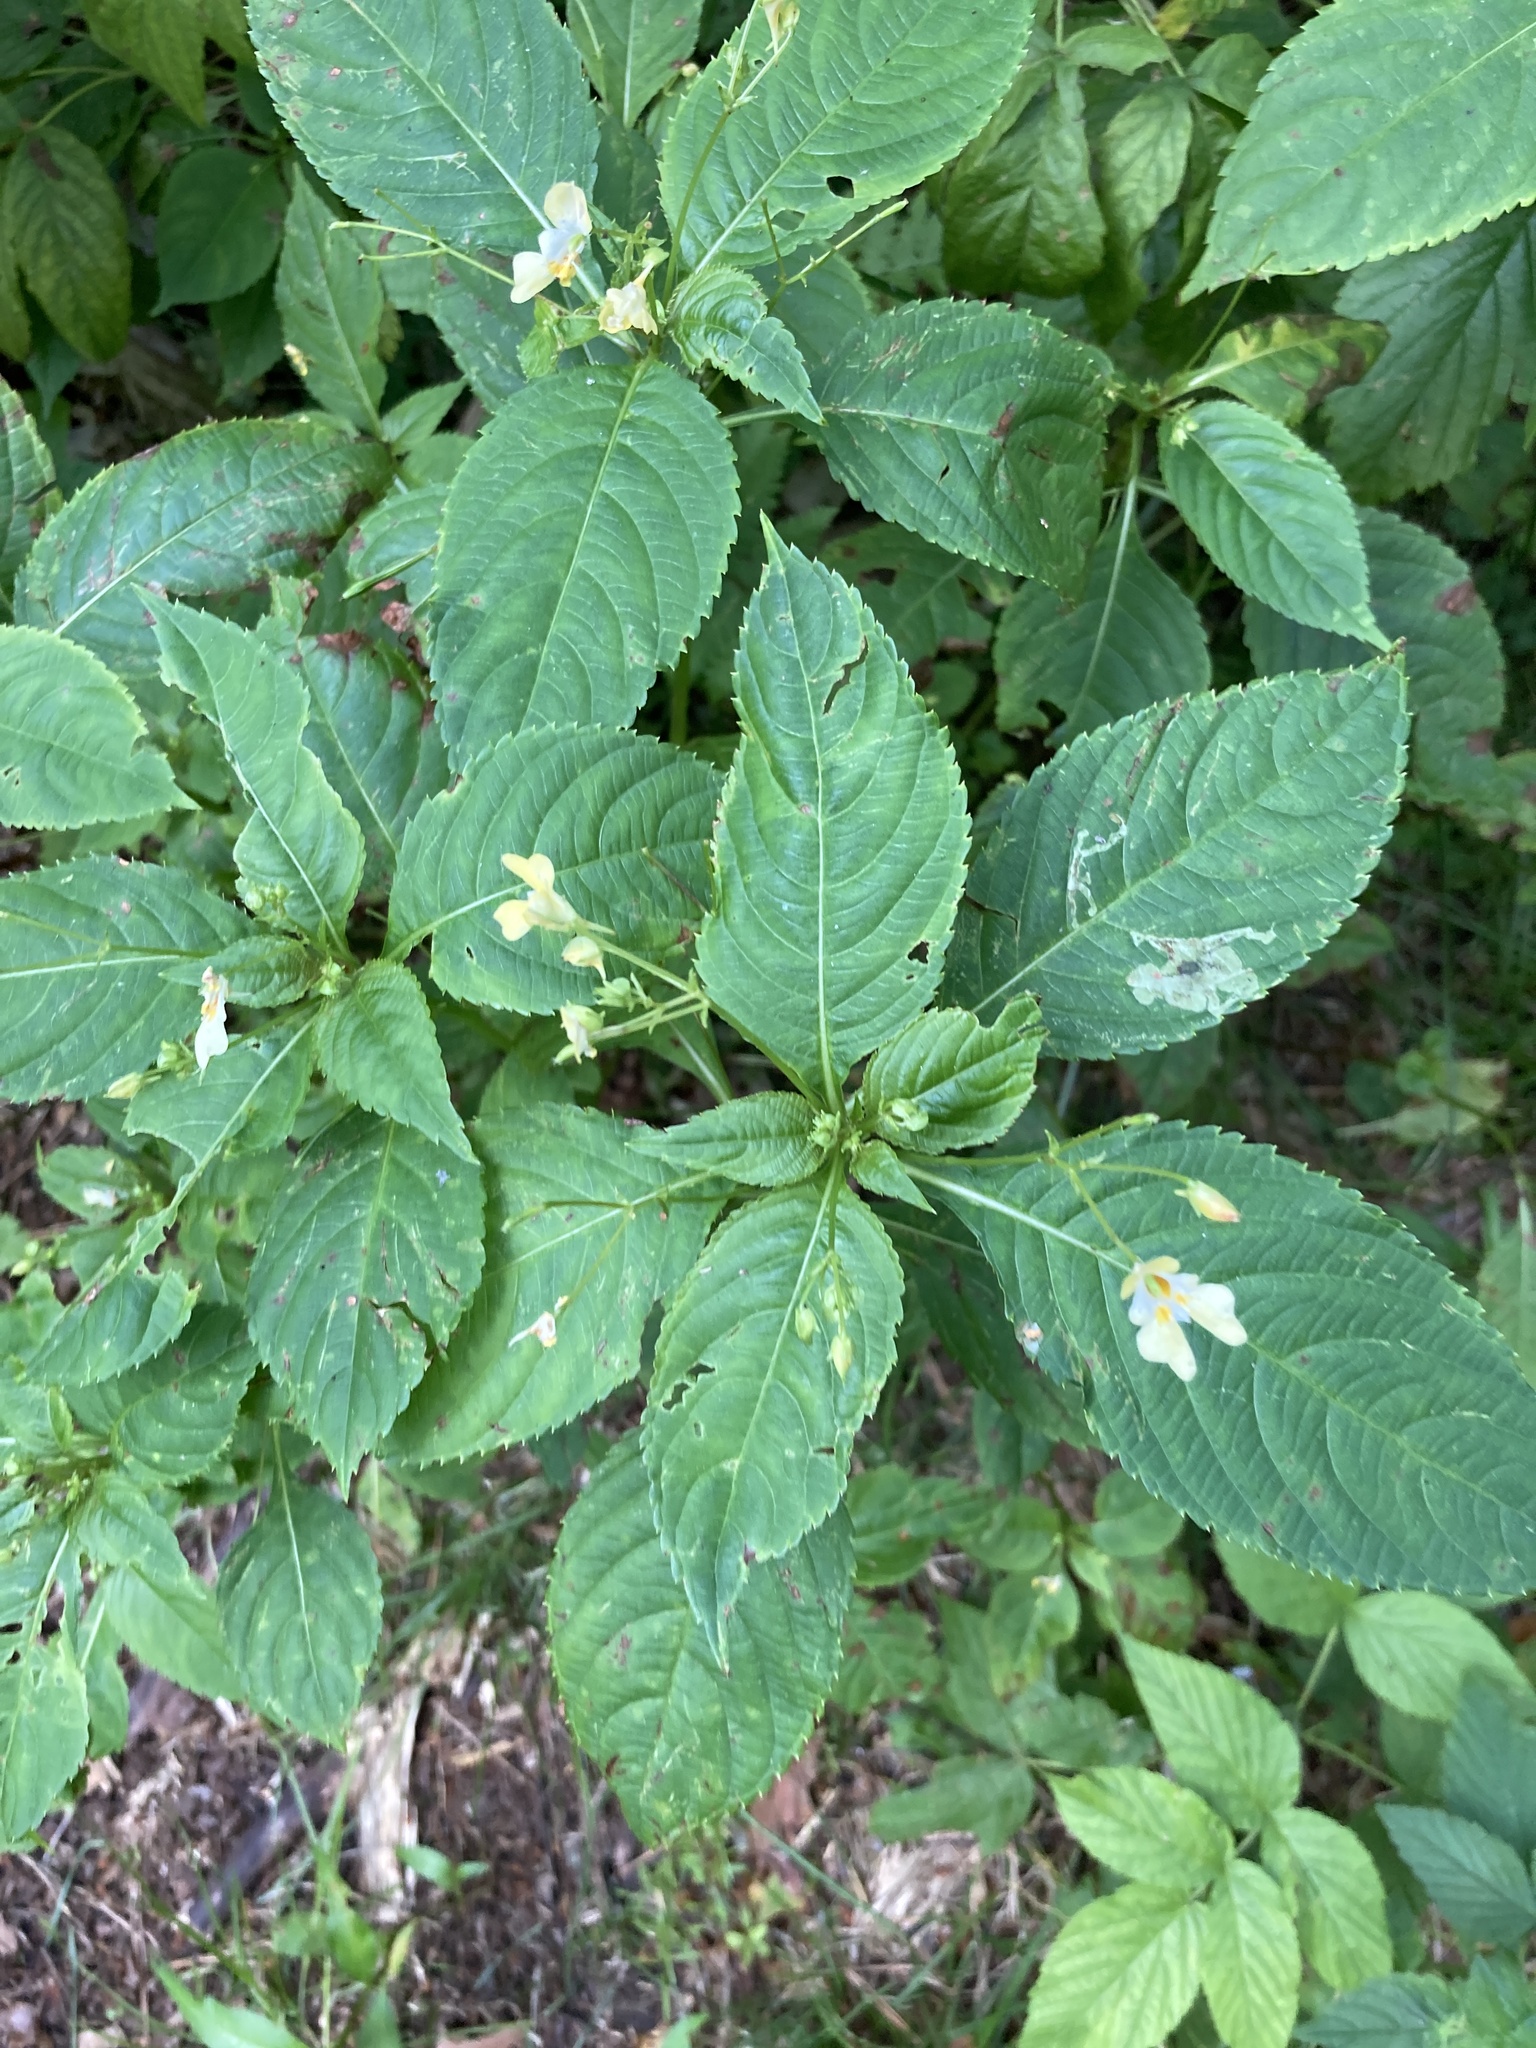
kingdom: Plantae
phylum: Tracheophyta
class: Magnoliopsida
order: Ericales
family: Balsaminaceae
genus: Impatiens
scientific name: Impatiens parviflora
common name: Small balsam
